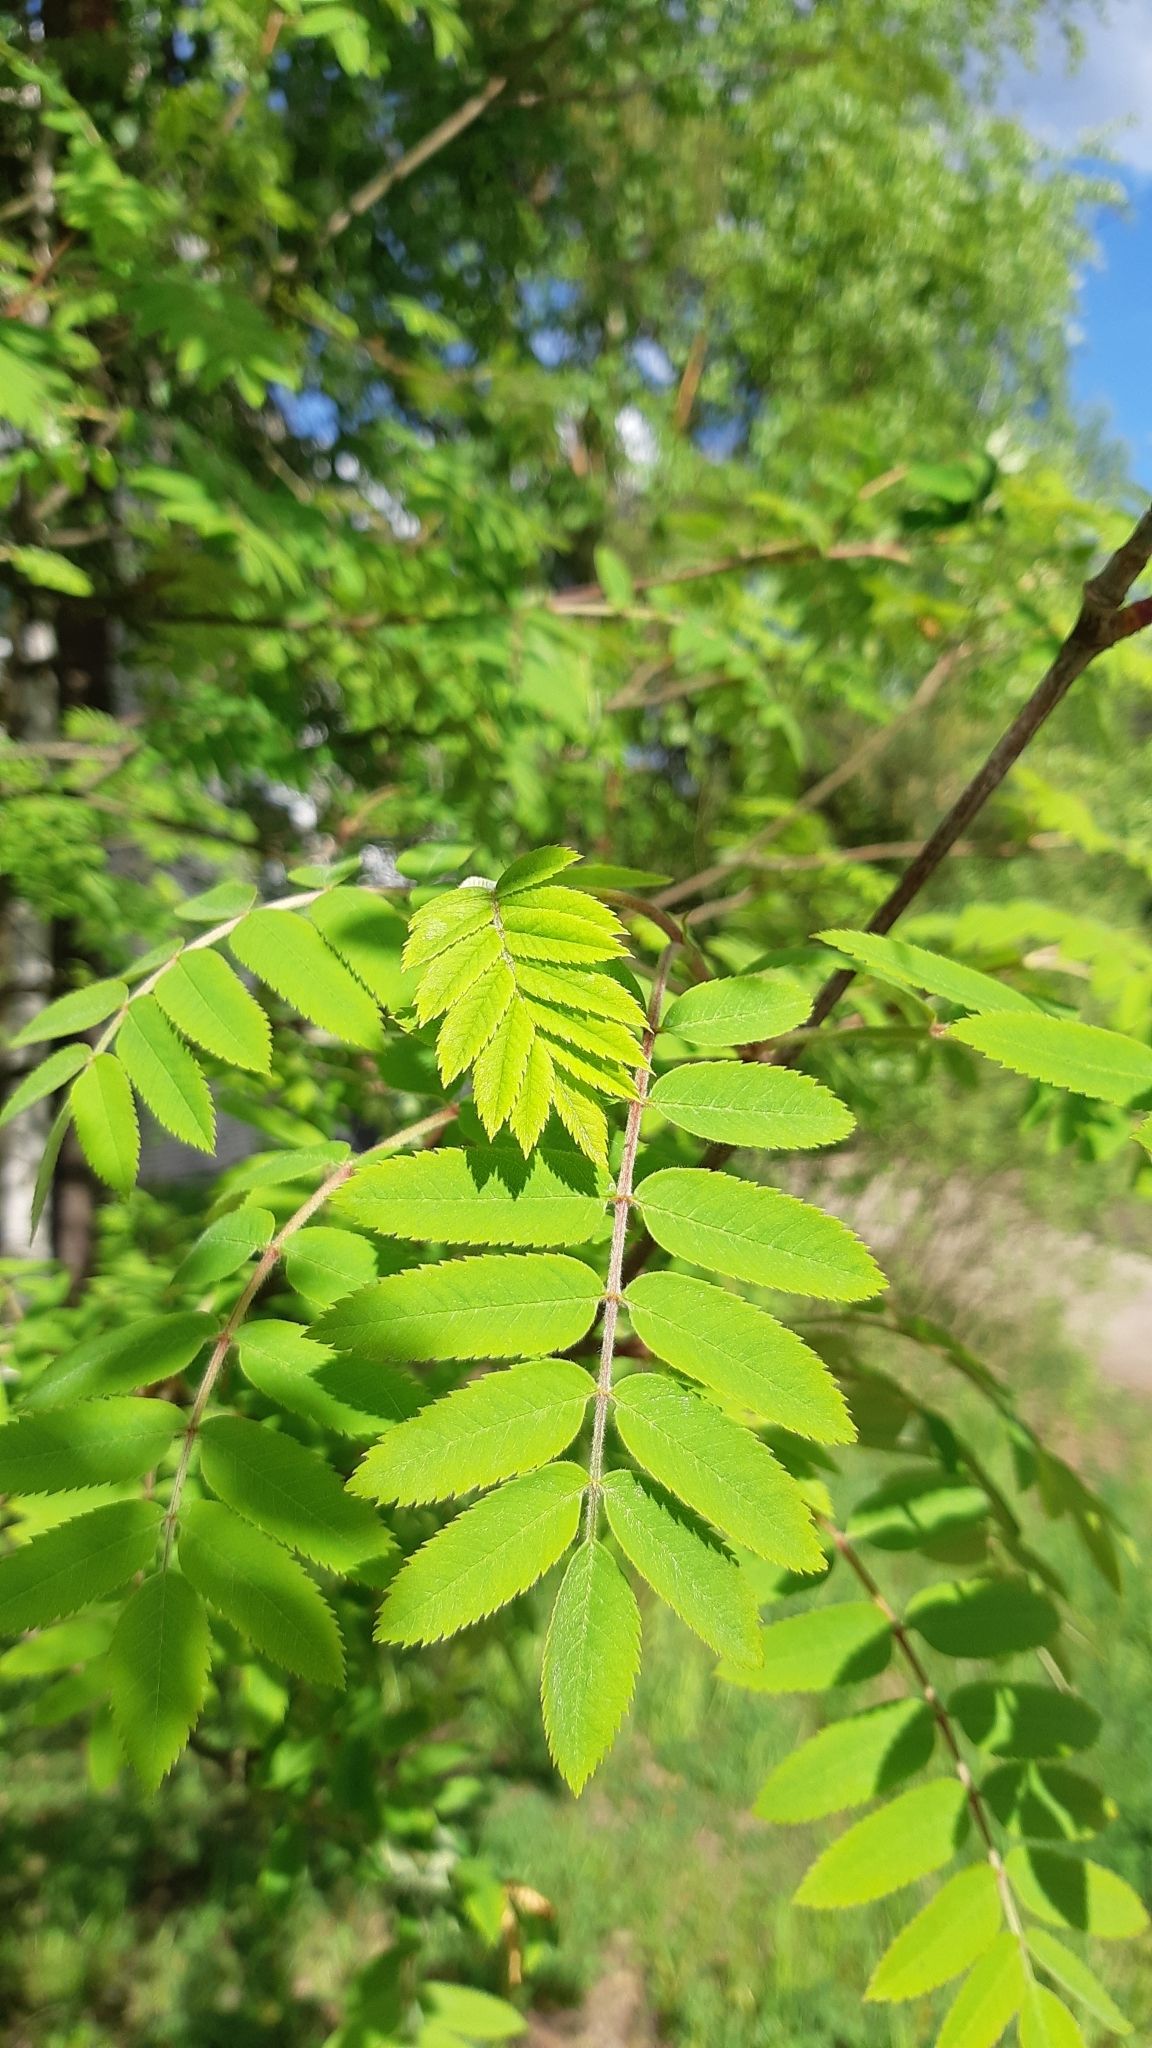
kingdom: Plantae
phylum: Tracheophyta
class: Magnoliopsida
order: Rosales
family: Rosaceae
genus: Sorbus
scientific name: Sorbus aucuparia
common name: Rowan
